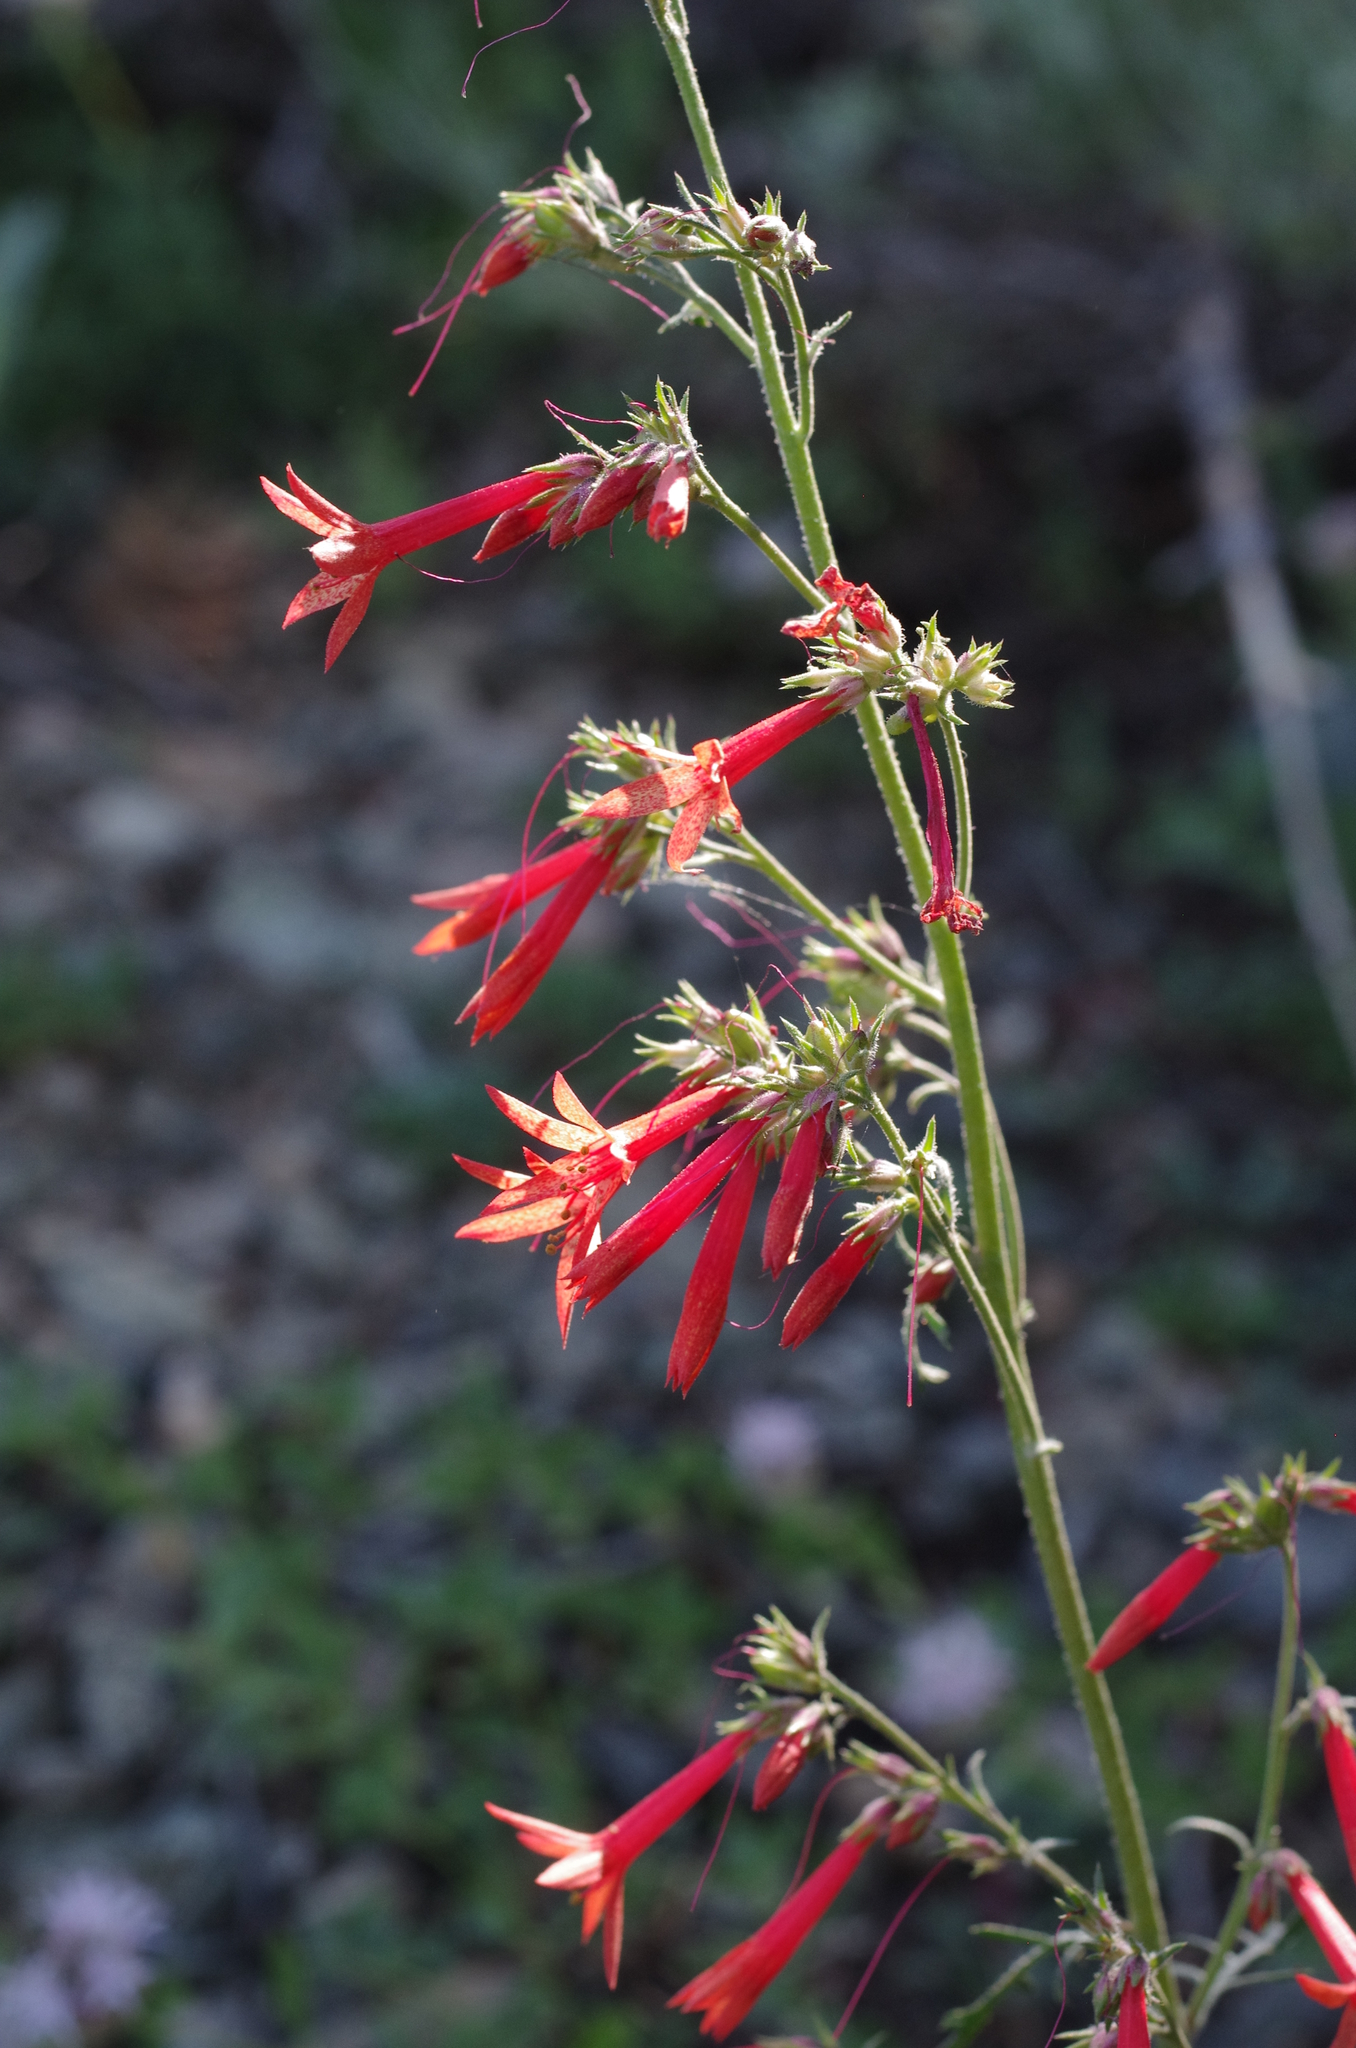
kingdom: Plantae
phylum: Tracheophyta
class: Magnoliopsida
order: Ericales
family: Polemoniaceae
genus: Ipomopsis
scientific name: Ipomopsis aggregata
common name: Scarlet gilia
